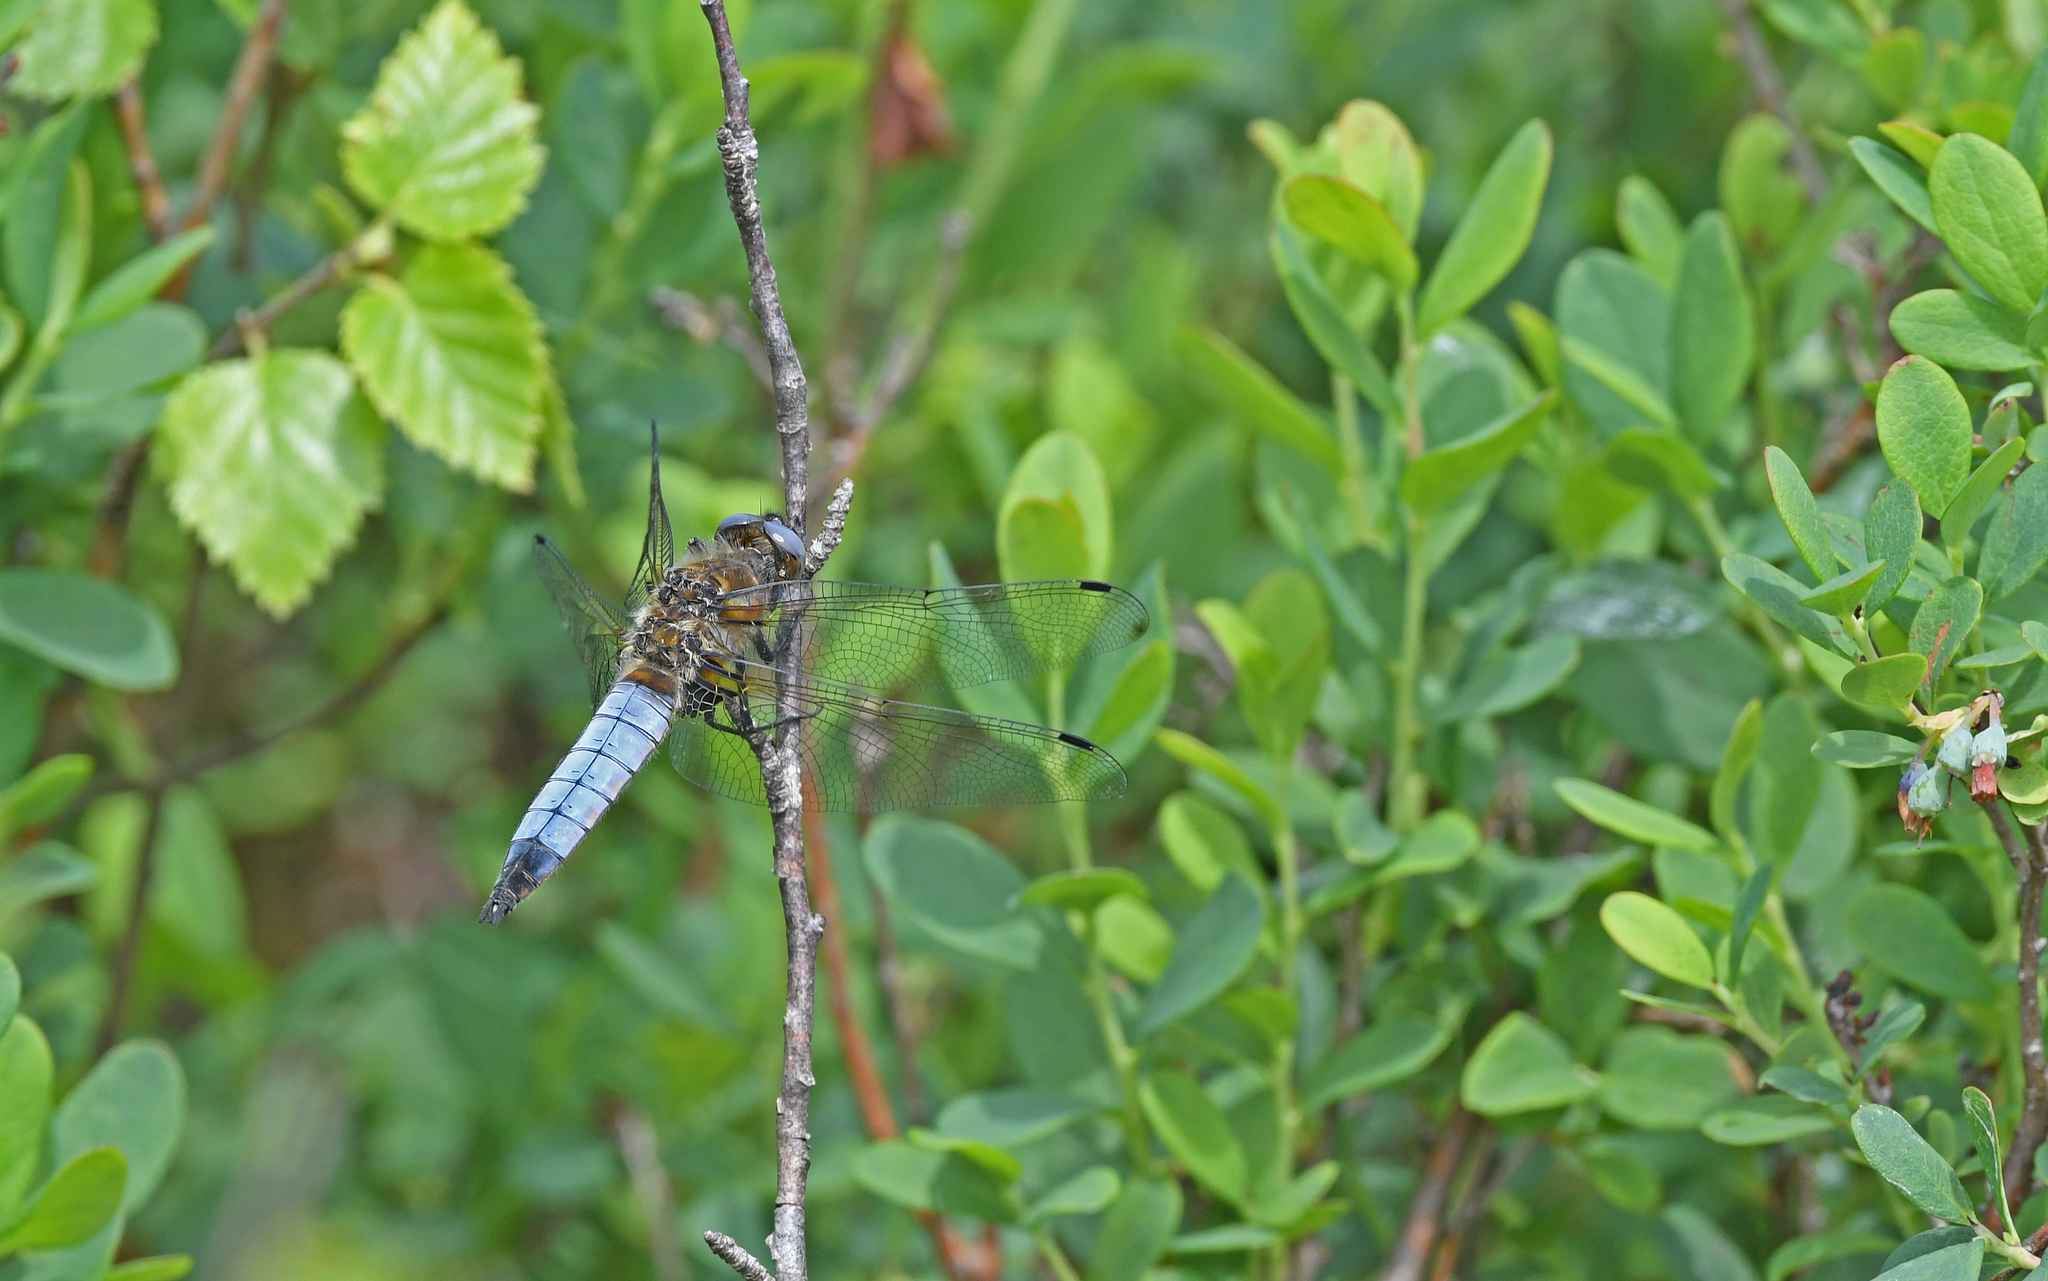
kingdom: Animalia
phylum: Arthropoda
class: Insecta
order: Odonata
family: Libellulidae
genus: Libellula
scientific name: Libellula fulva
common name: Blue chaser
